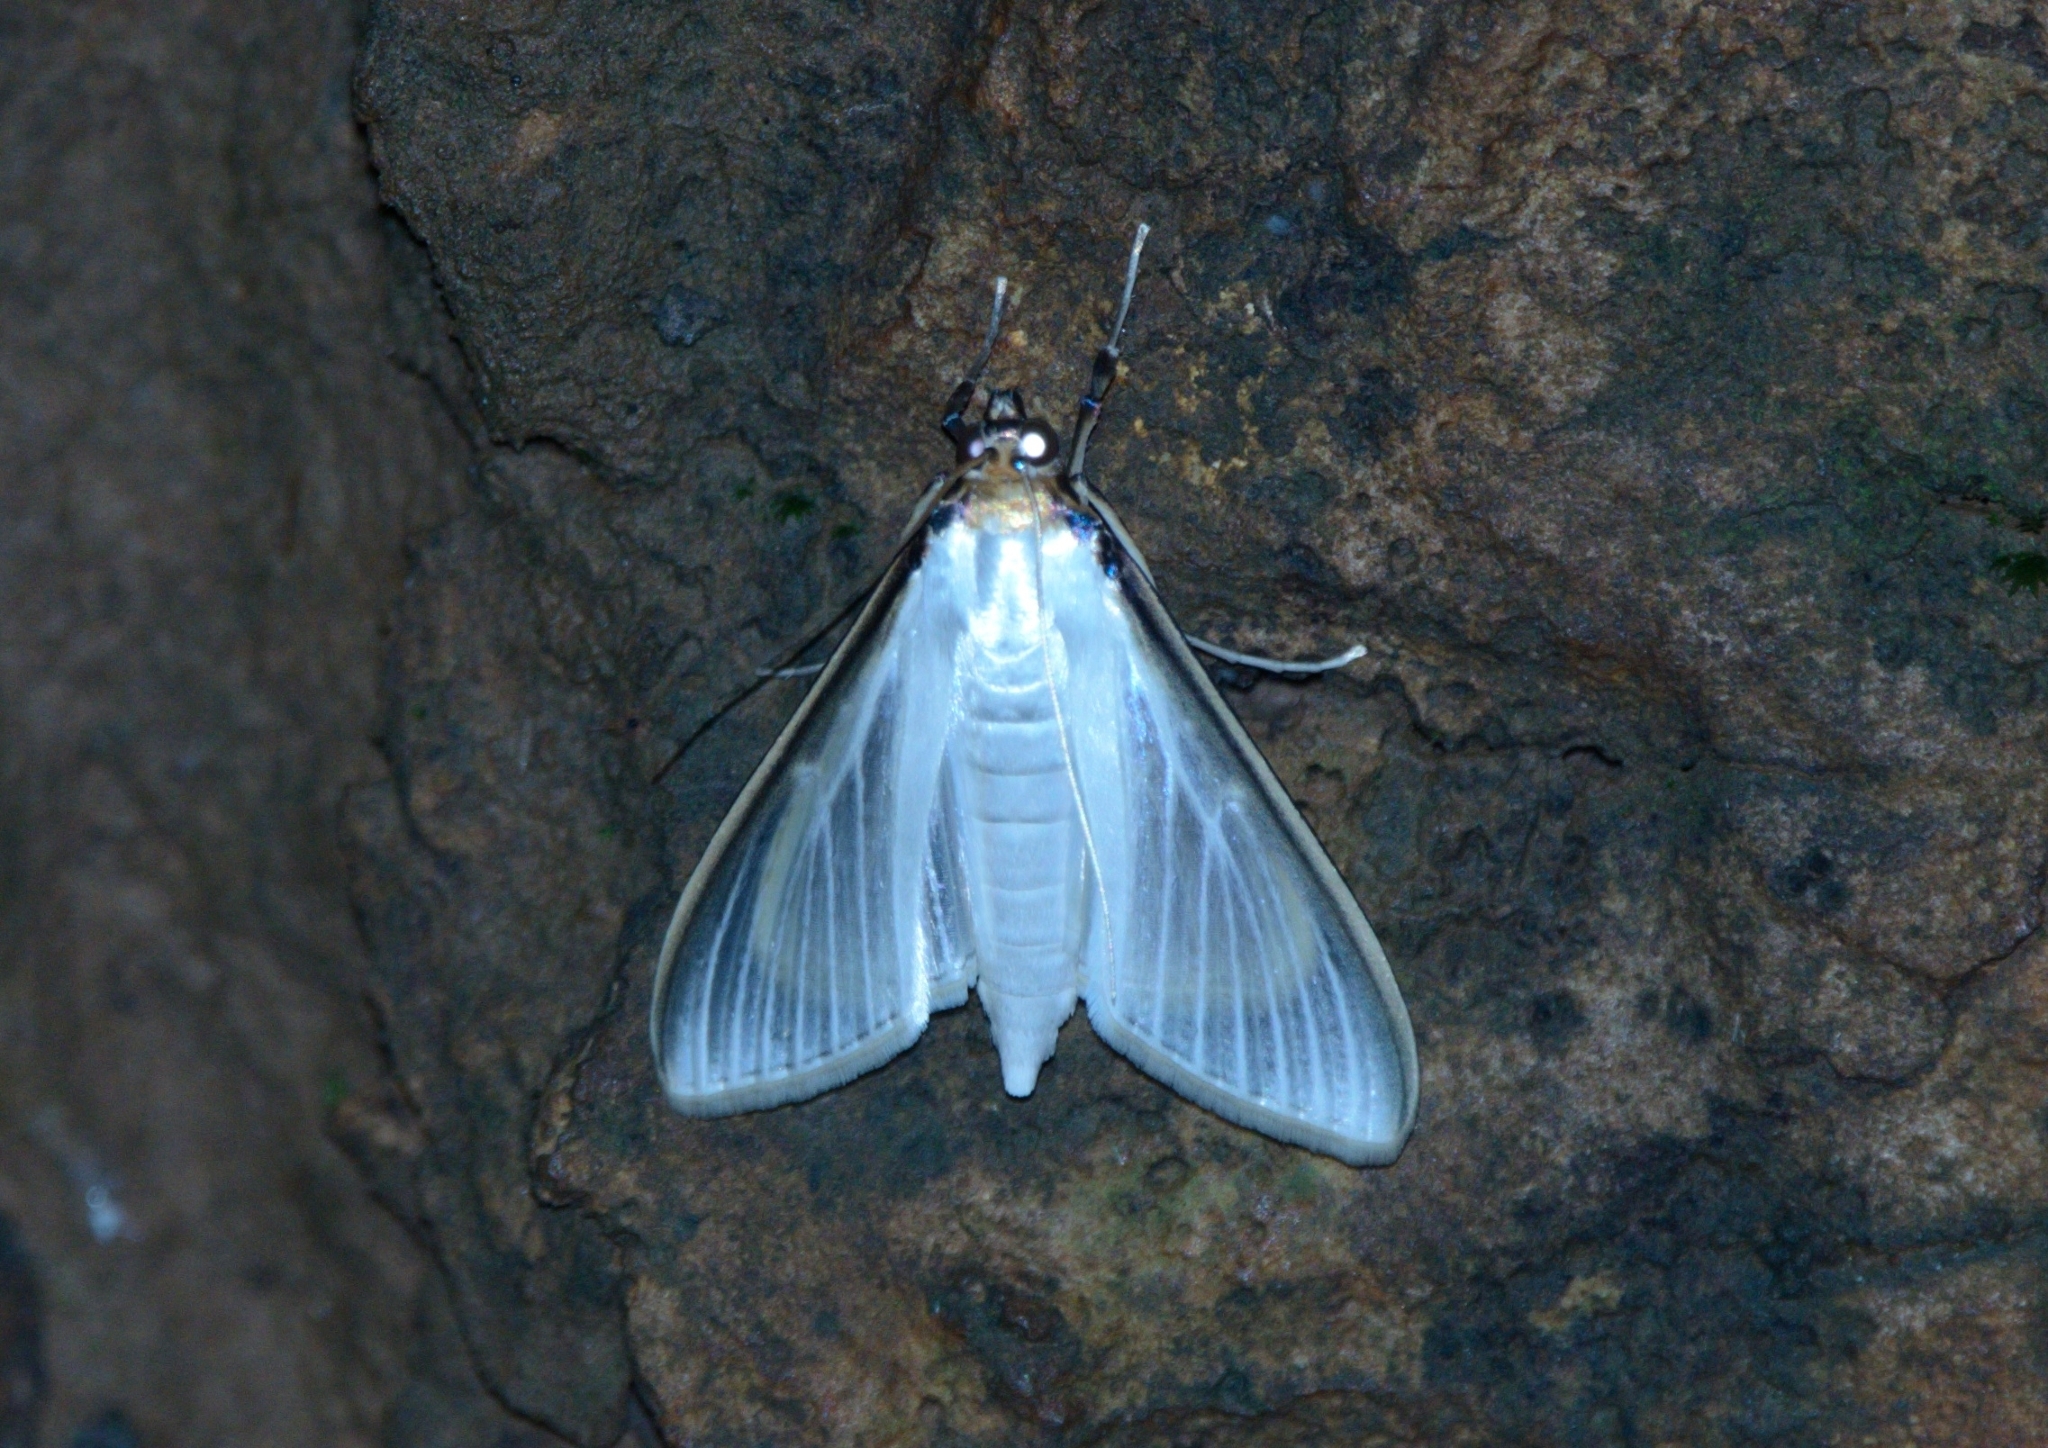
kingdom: Animalia
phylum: Arthropoda
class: Insecta
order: Lepidoptera
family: Crambidae
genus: Cydalima
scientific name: Cydalima laticostalis
